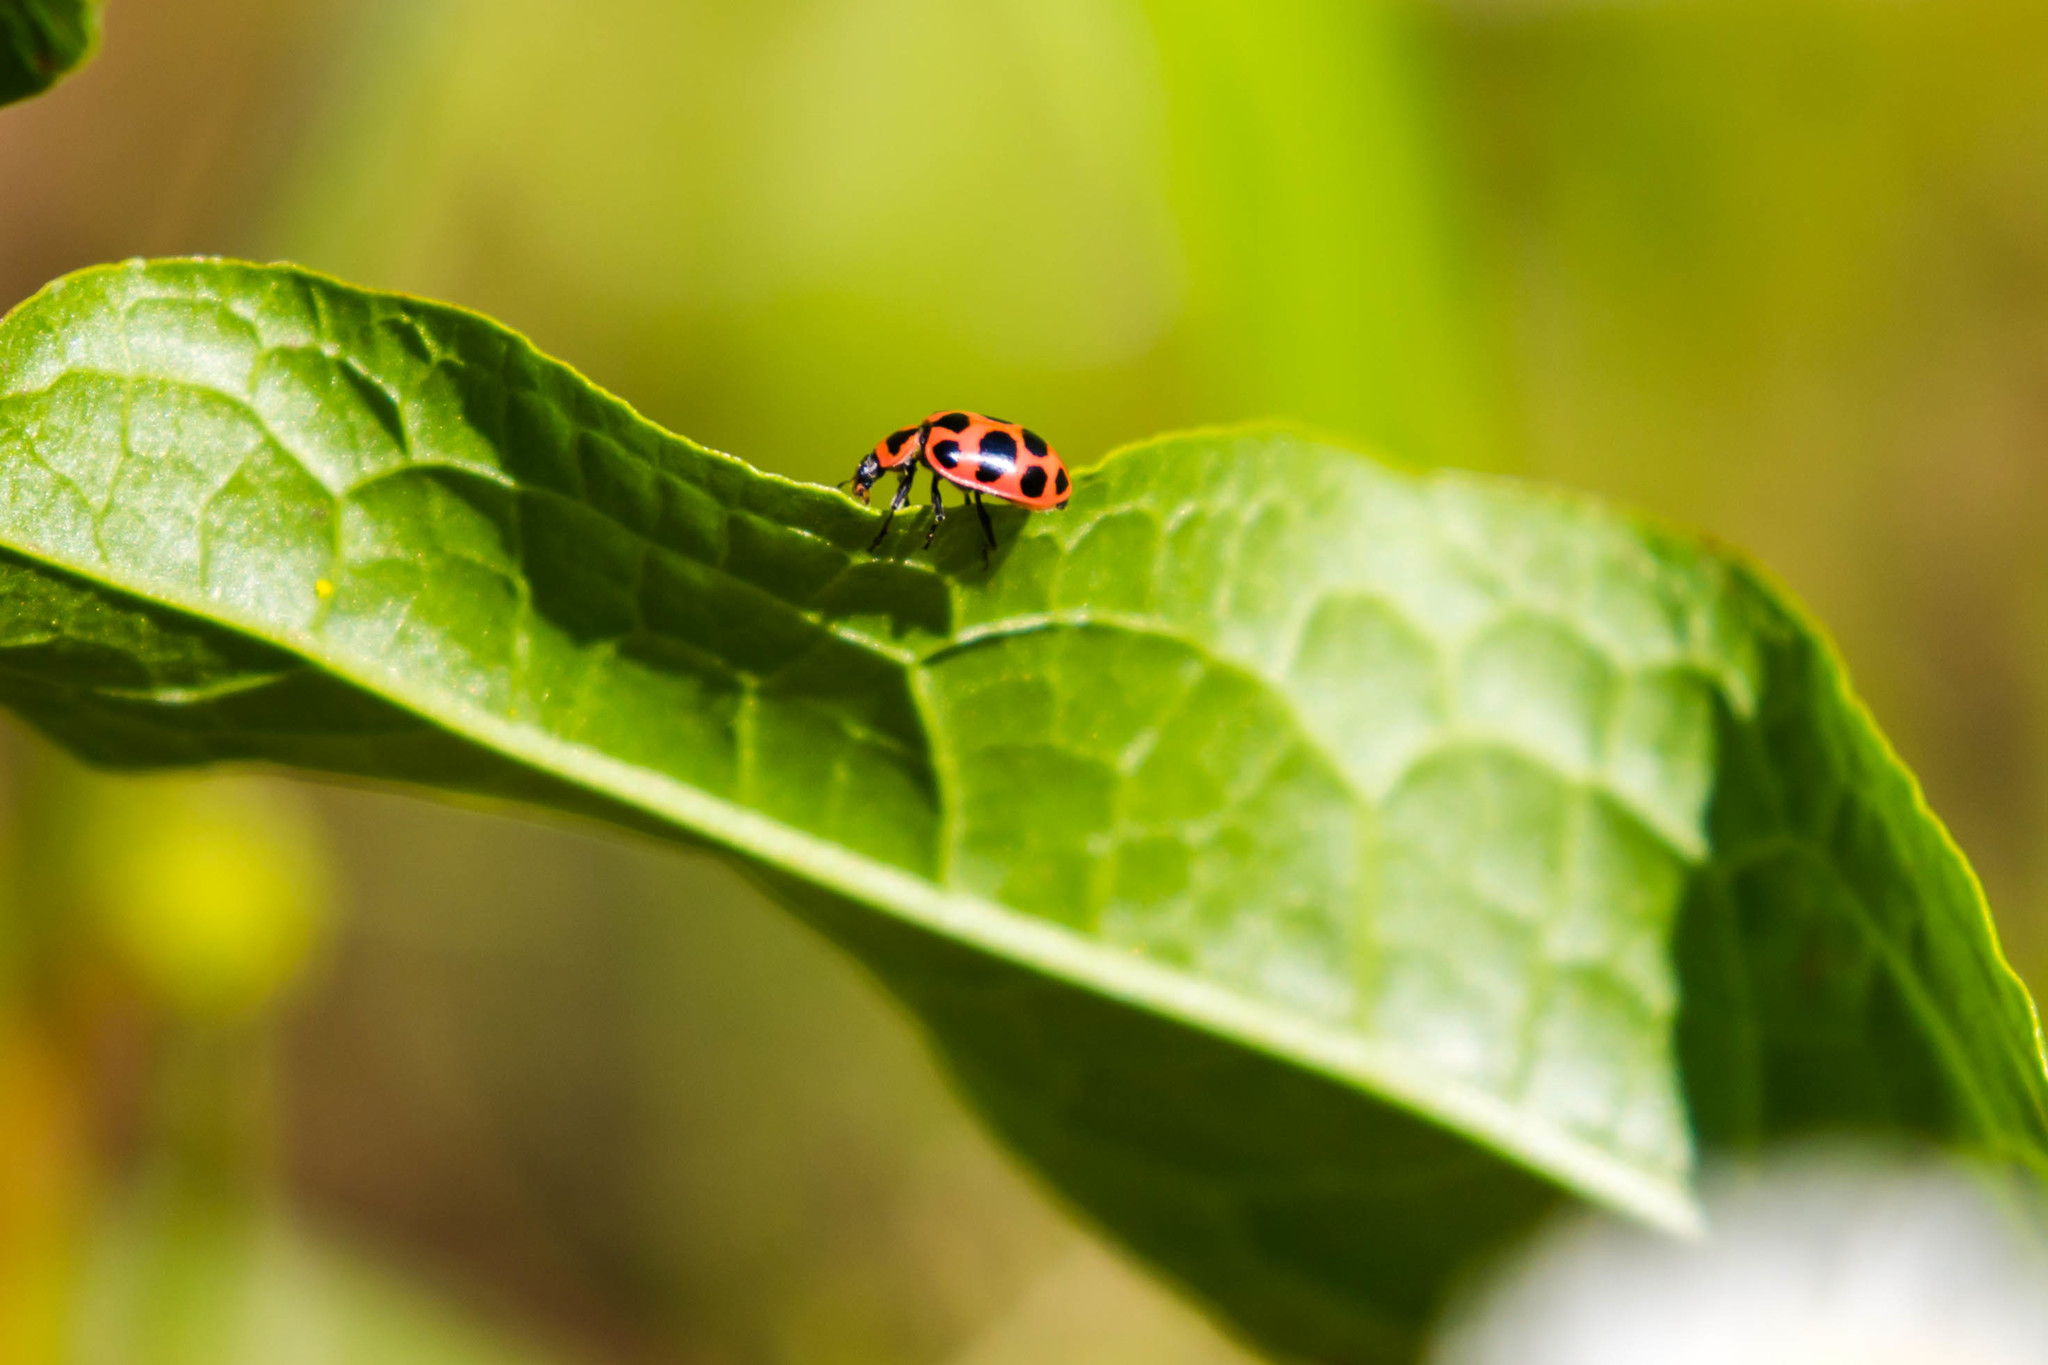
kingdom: Animalia
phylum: Arthropoda
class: Insecta
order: Coleoptera
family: Coccinellidae
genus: Coleomegilla
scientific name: Coleomegilla maculata
